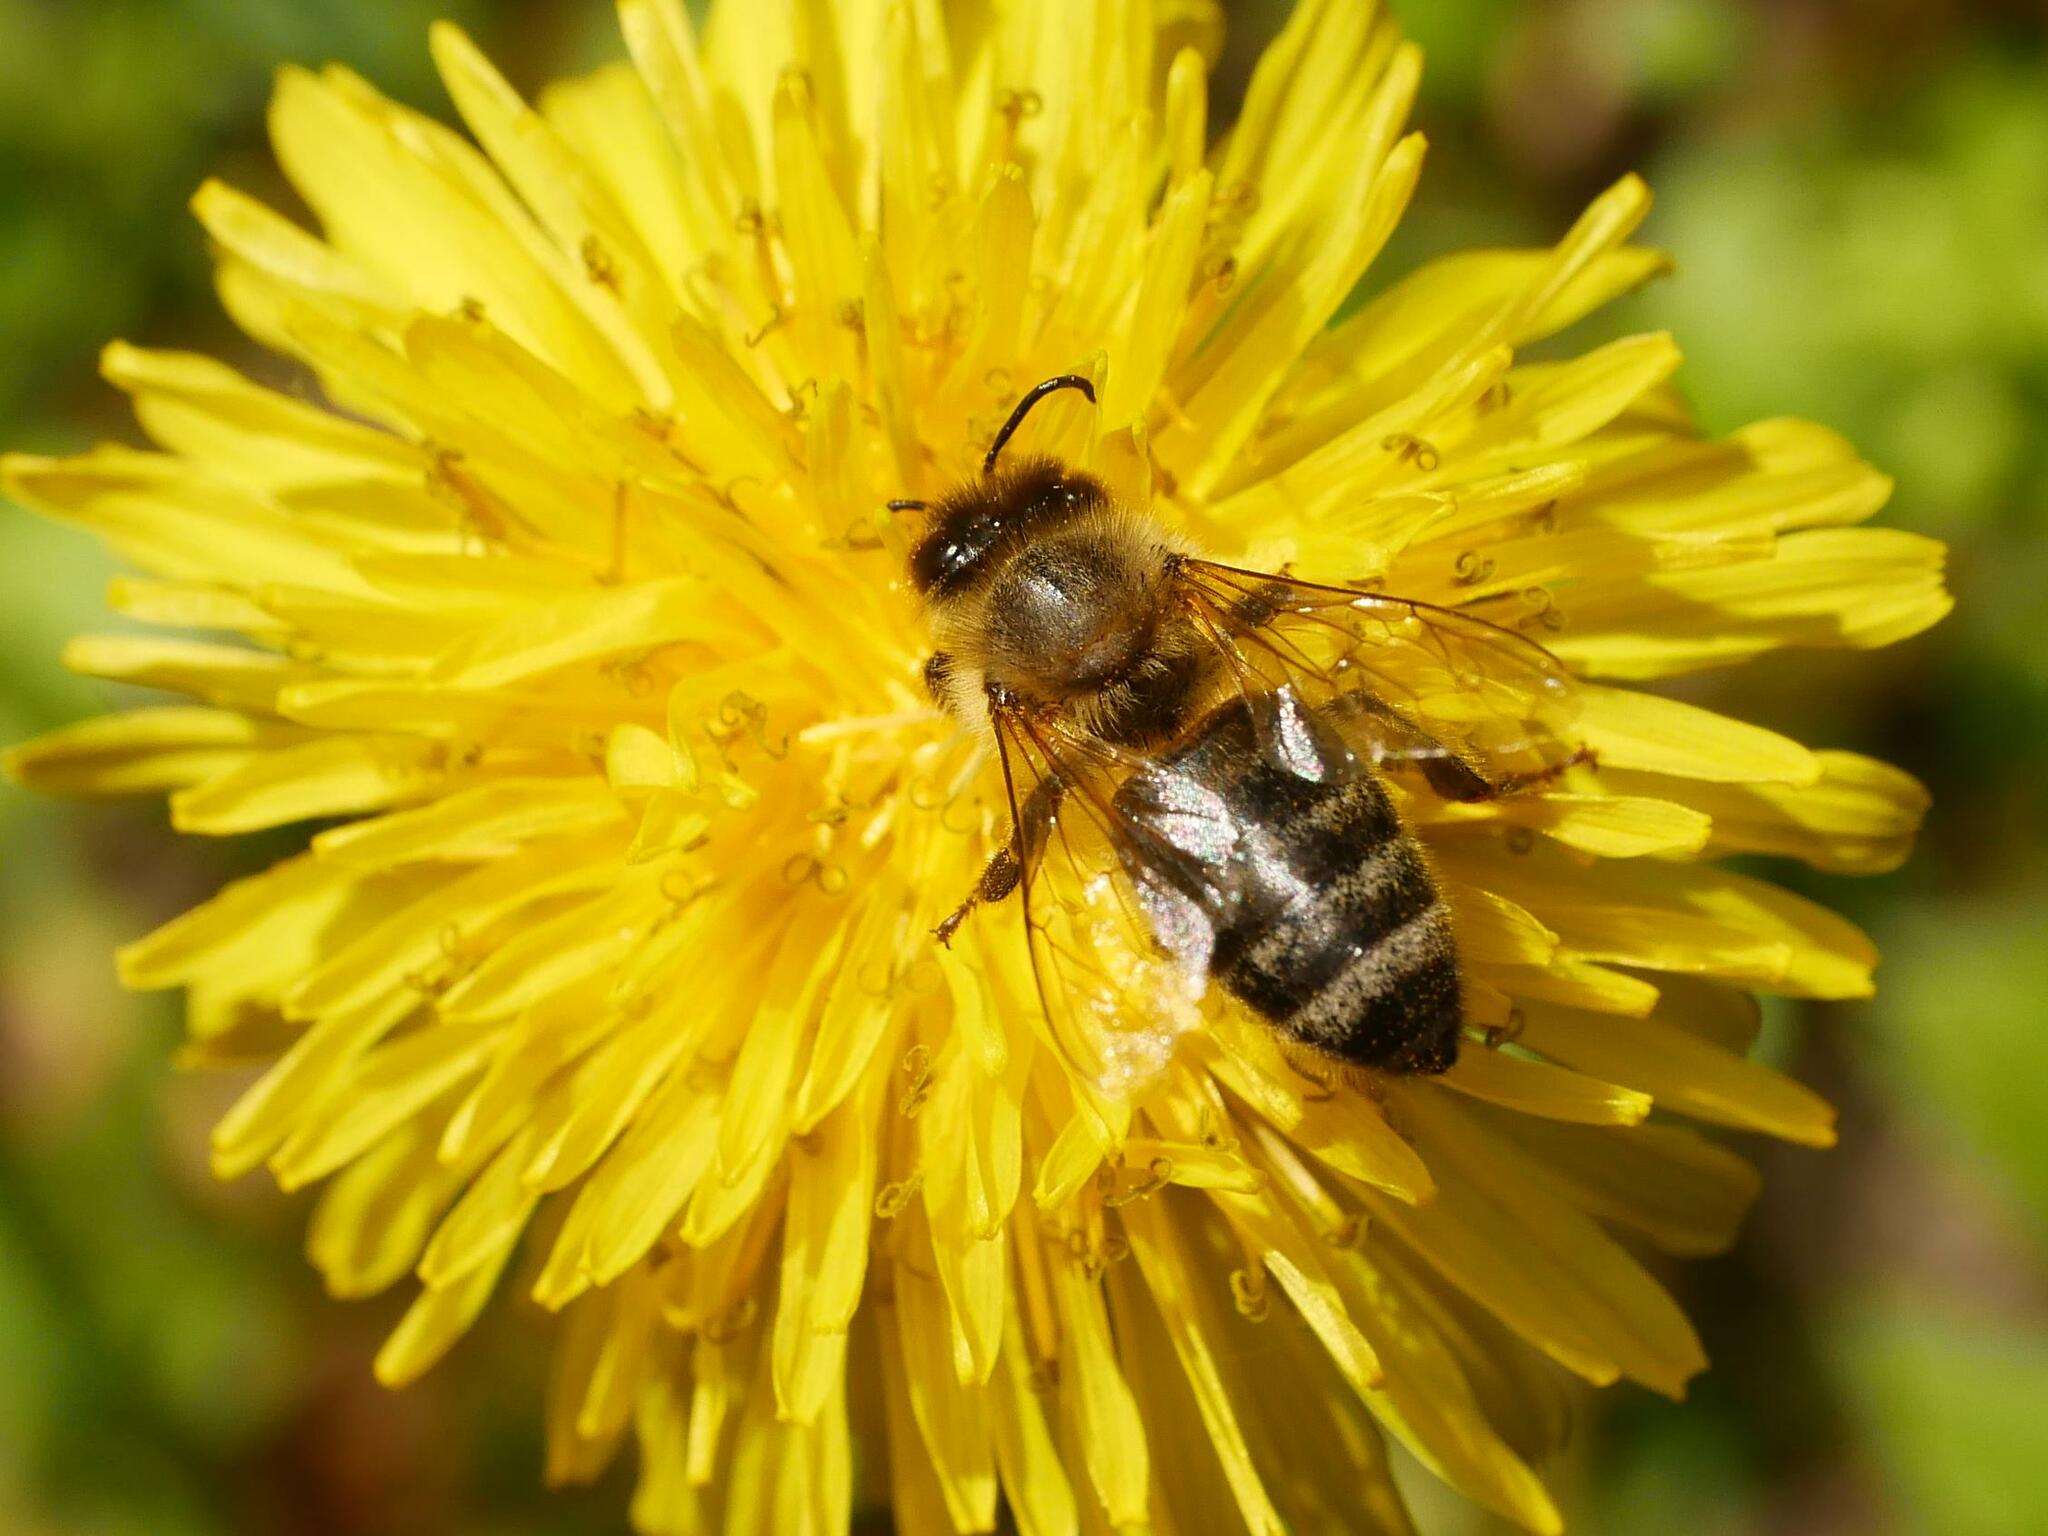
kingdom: Animalia
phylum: Arthropoda
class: Insecta
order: Hymenoptera
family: Apidae
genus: Apis
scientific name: Apis mellifera
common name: Honey bee
